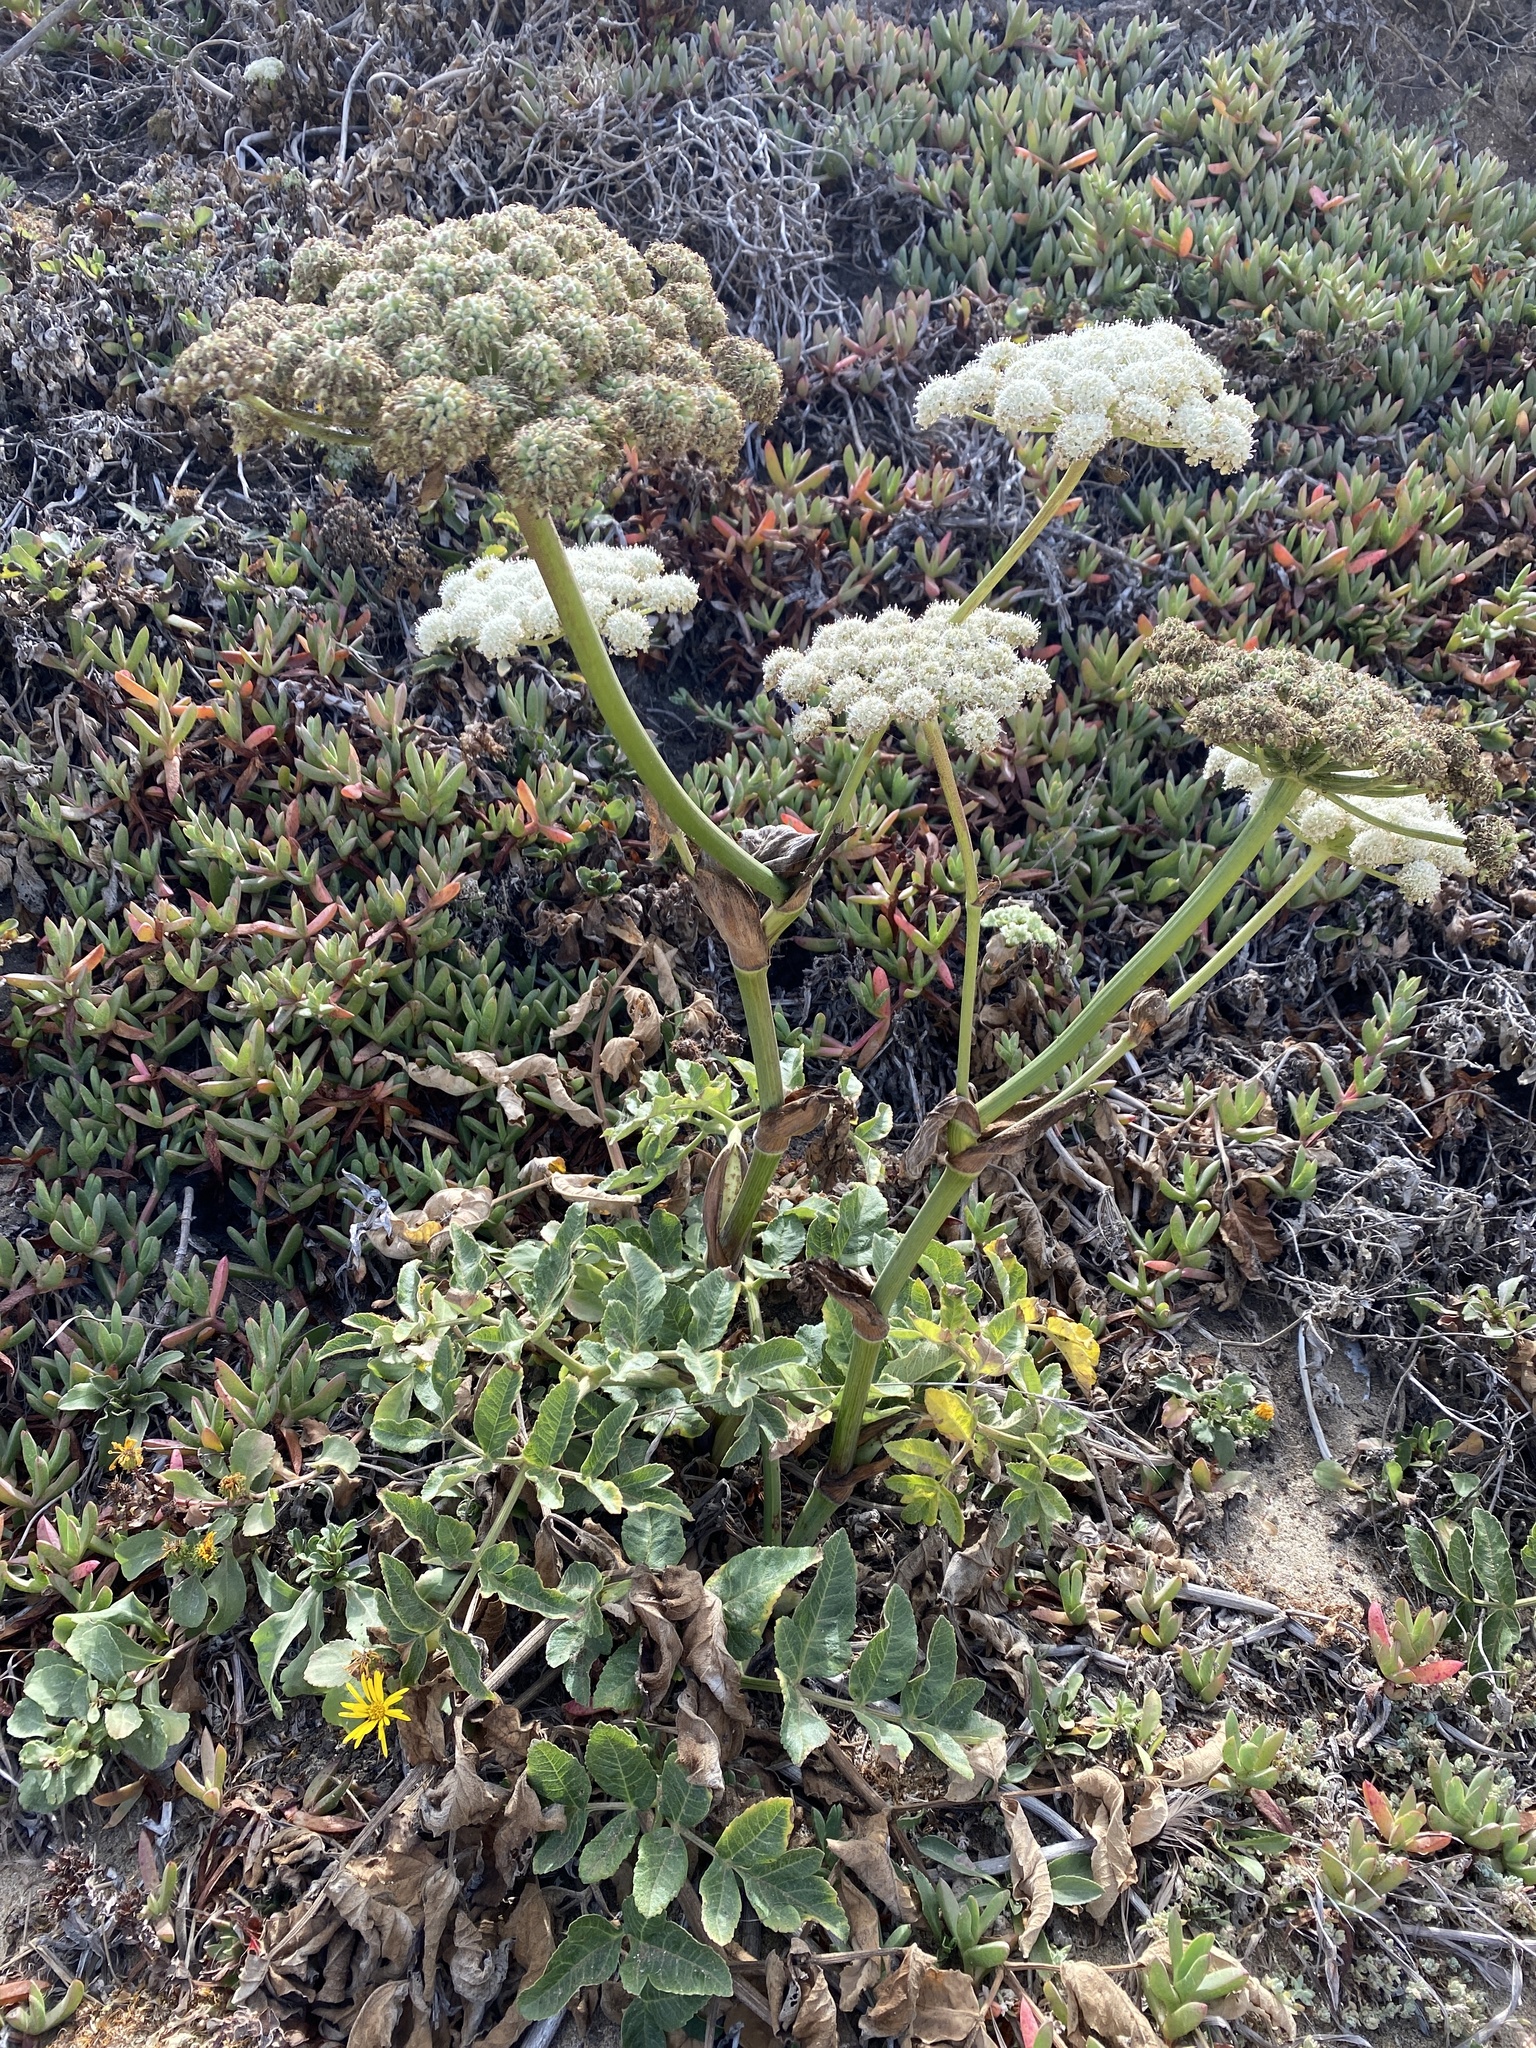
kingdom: Plantae
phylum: Tracheophyta
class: Magnoliopsida
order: Apiales
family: Apiaceae
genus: Angelica
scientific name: Angelica hendersonii
